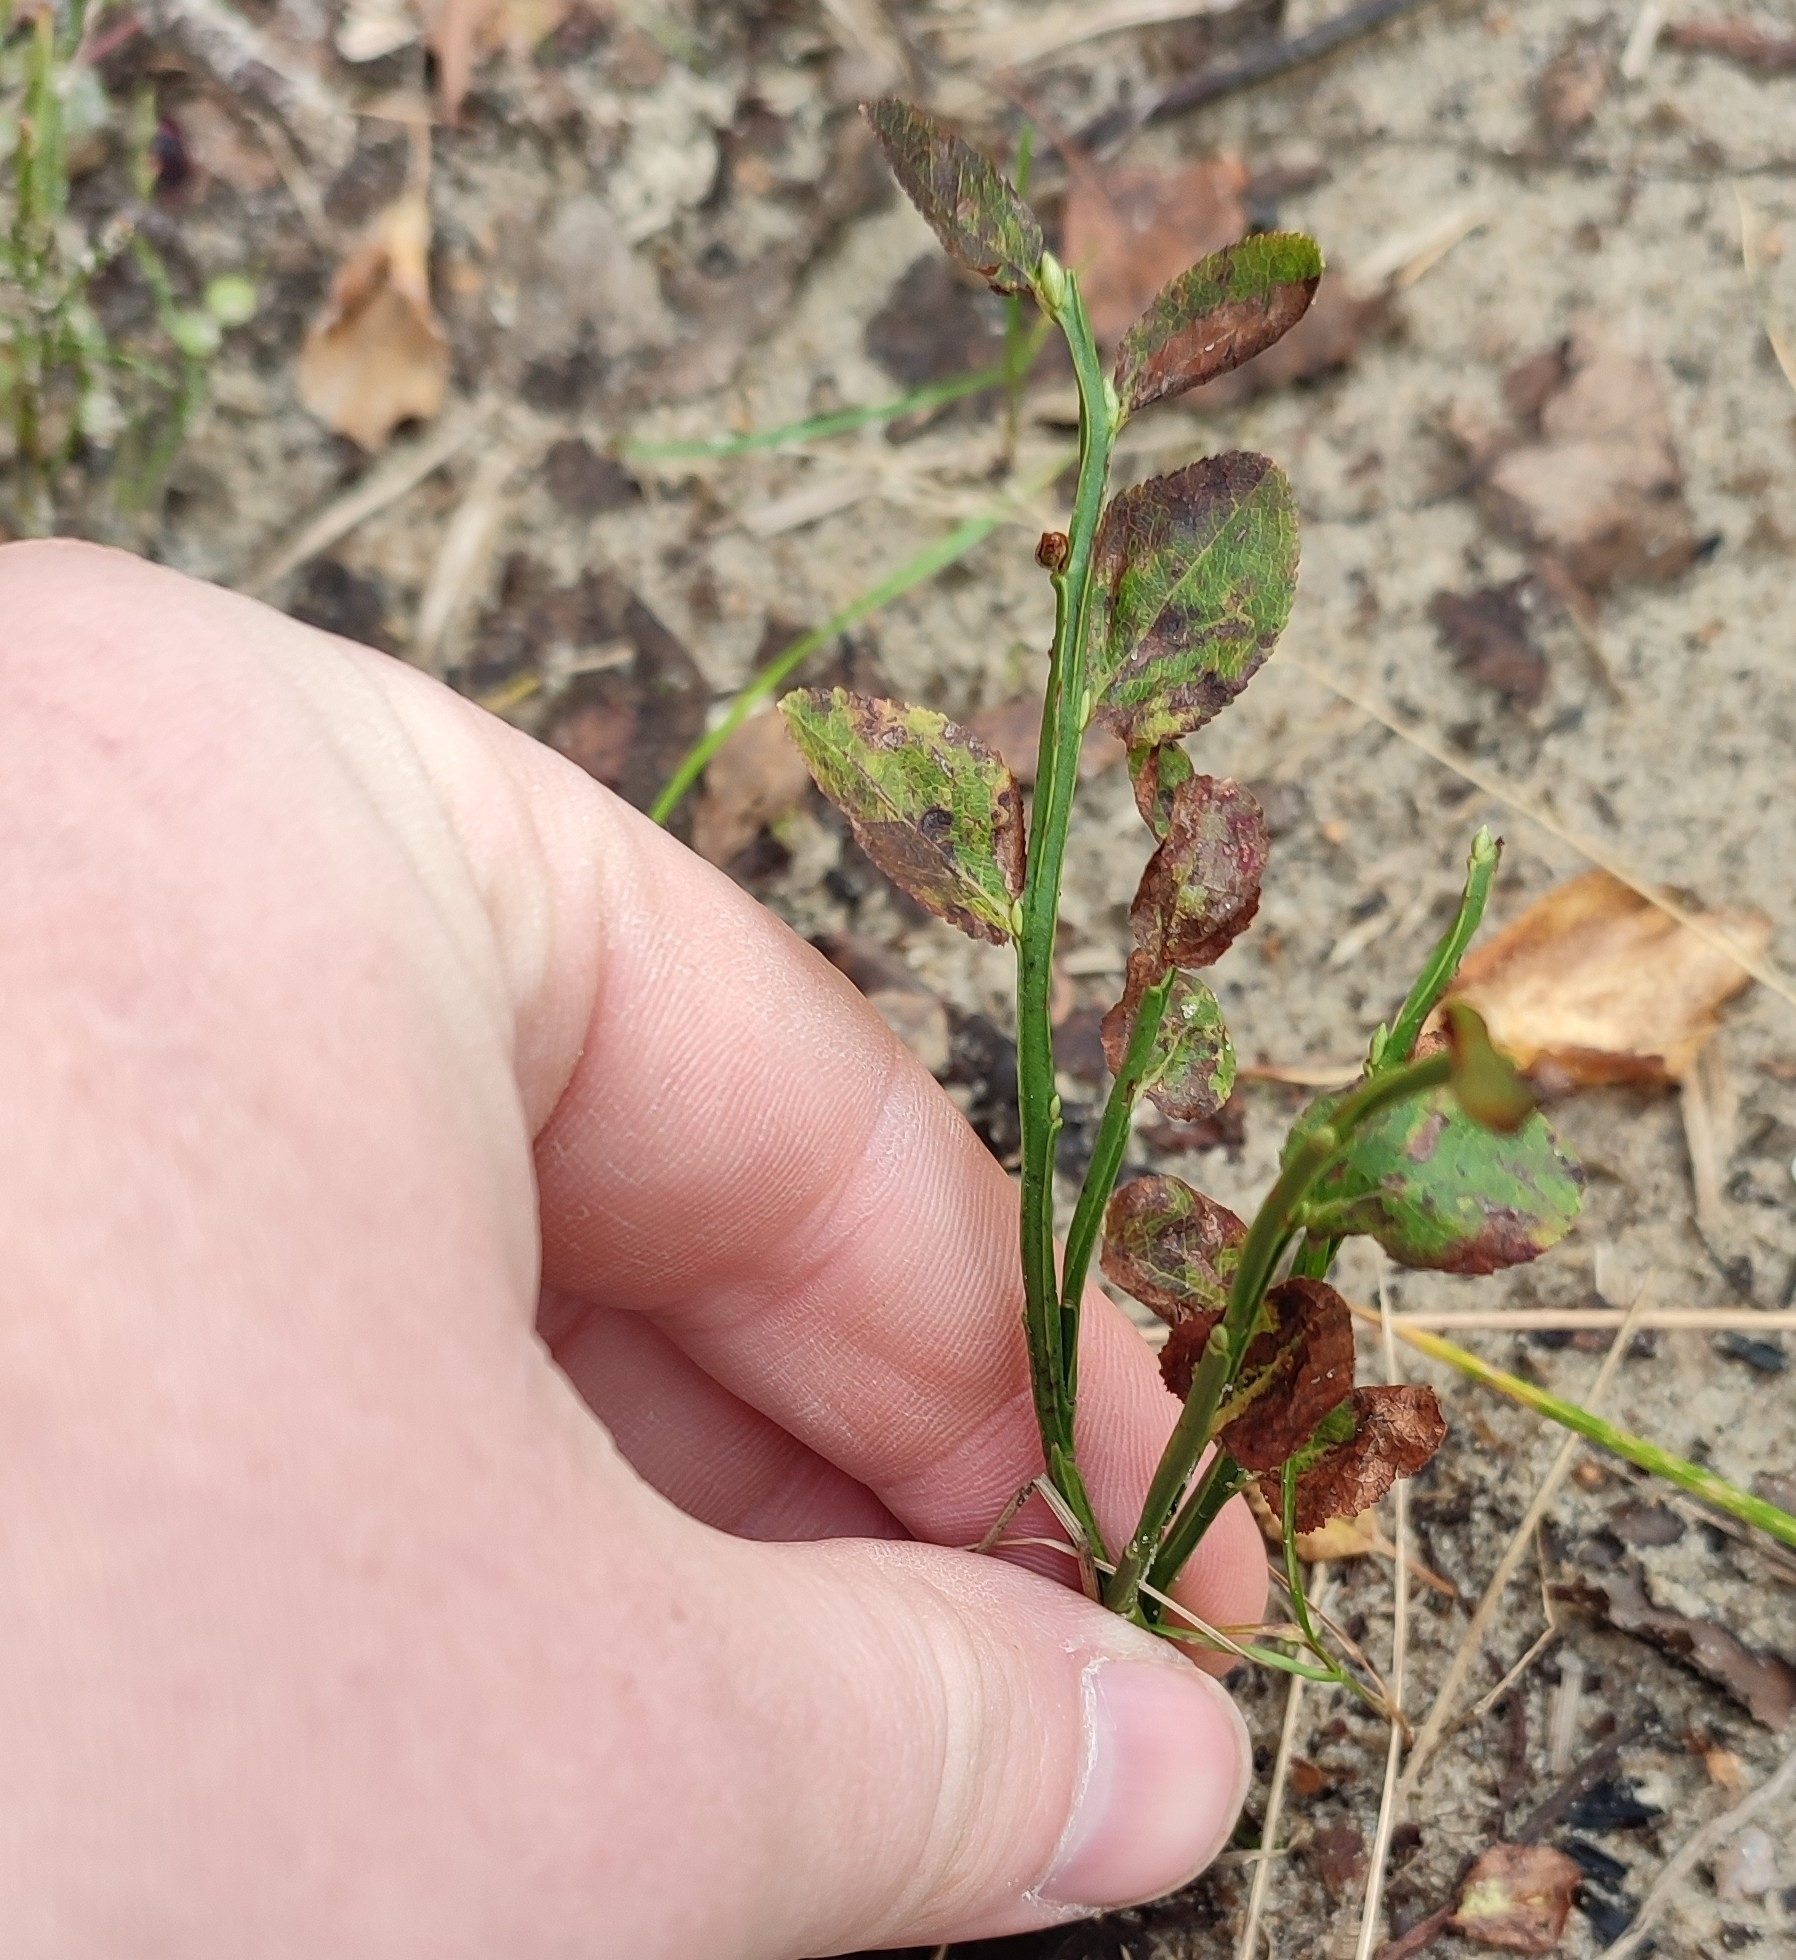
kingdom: Plantae
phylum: Tracheophyta
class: Magnoliopsida
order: Ericales
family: Ericaceae
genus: Vaccinium
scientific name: Vaccinium myrtillus
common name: Bilberry
